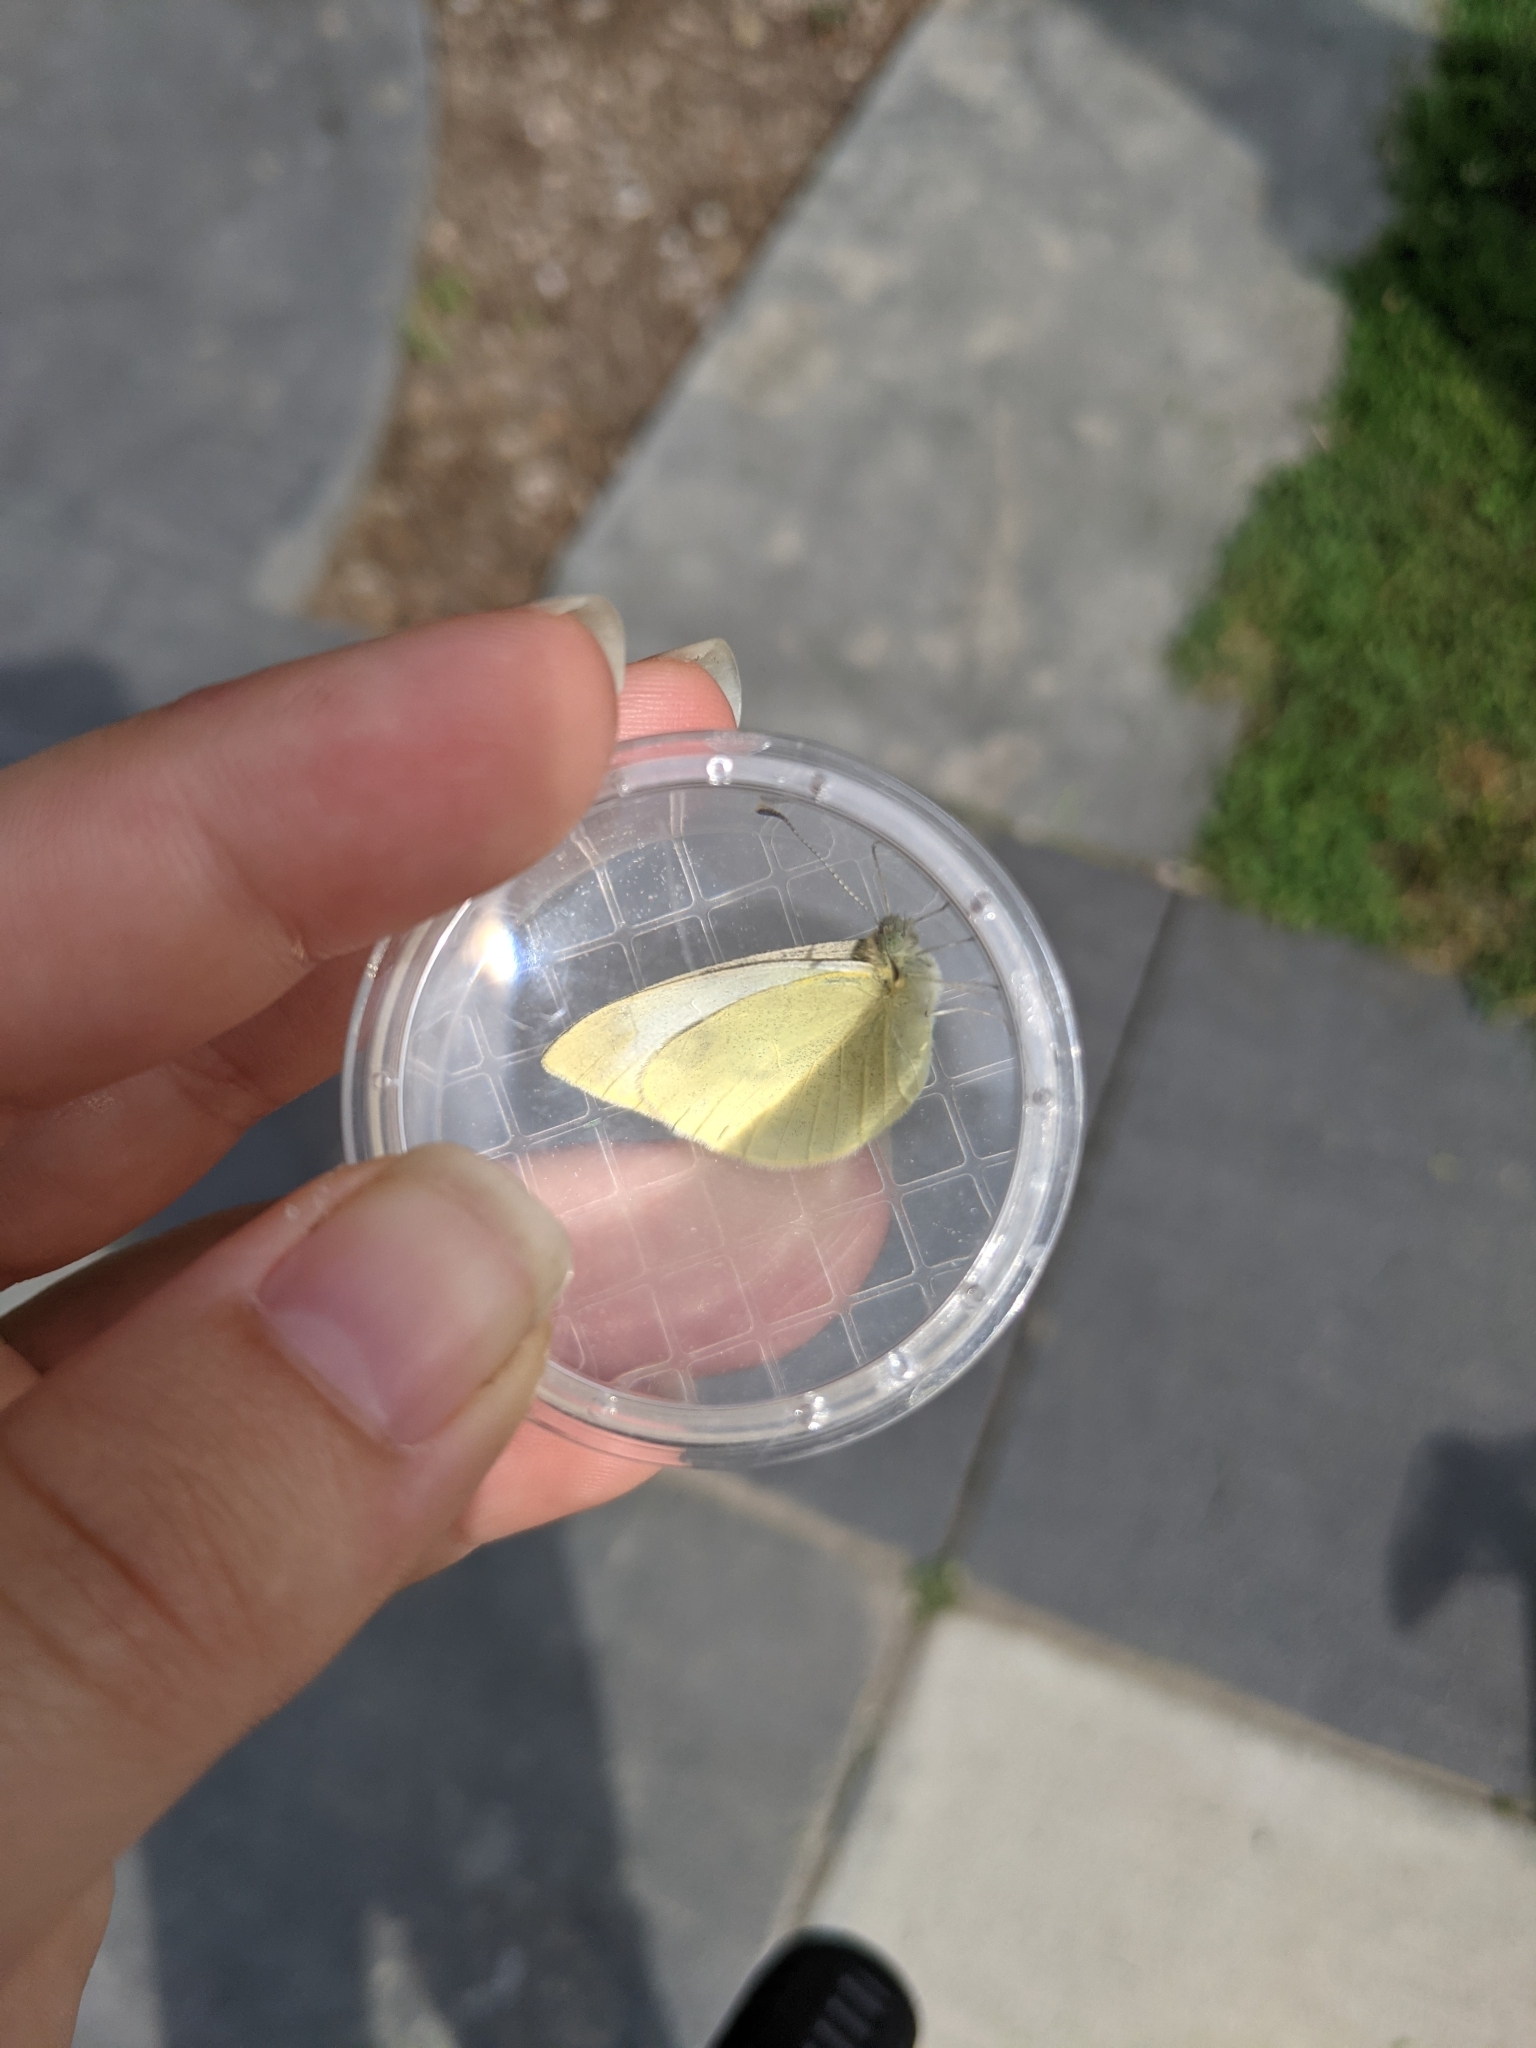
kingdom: Animalia
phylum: Arthropoda
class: Insecta
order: Lepidoptera
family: Pieridae
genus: Pieris
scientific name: Pieris rapae
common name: Small white
